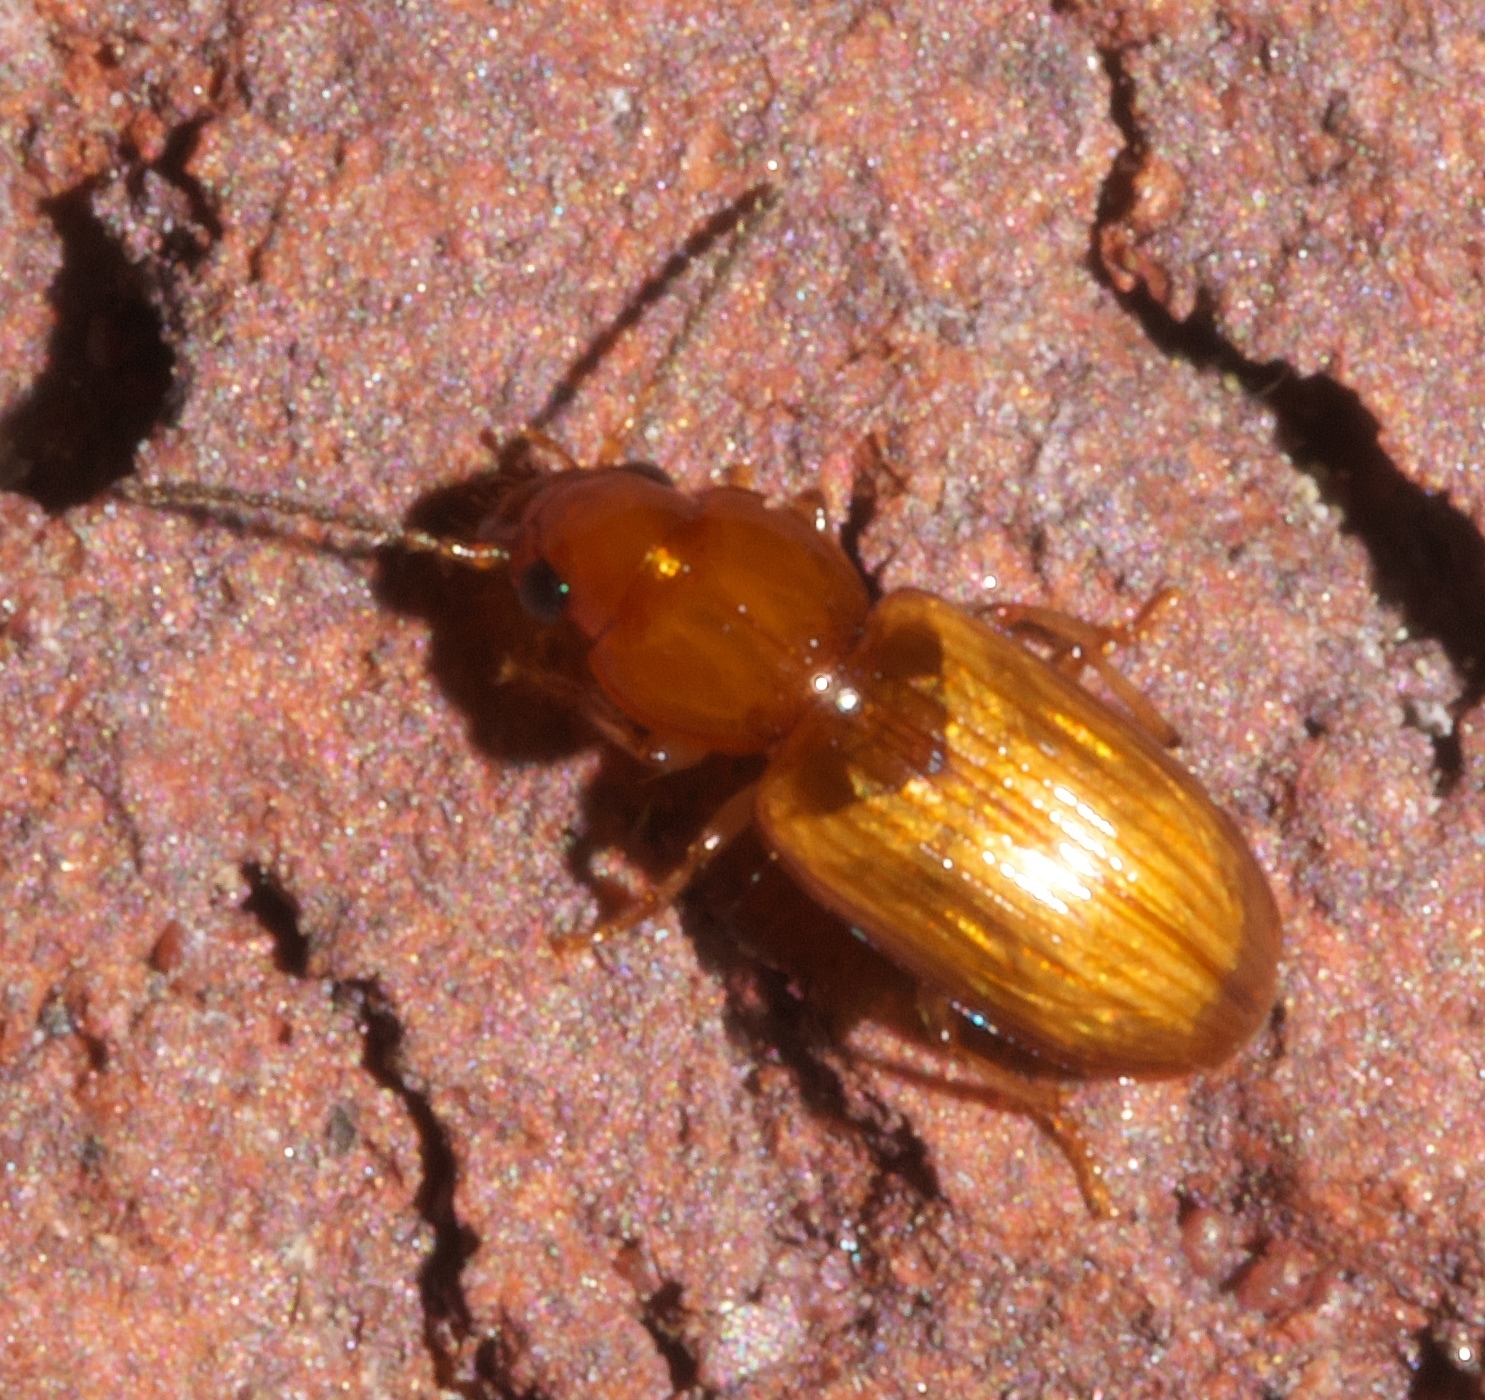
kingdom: Animalia
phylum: Arthropoda
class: Insecta
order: Coleoptera
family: Carabidae
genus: Acupalpus
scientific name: Acupalpus testaceus
